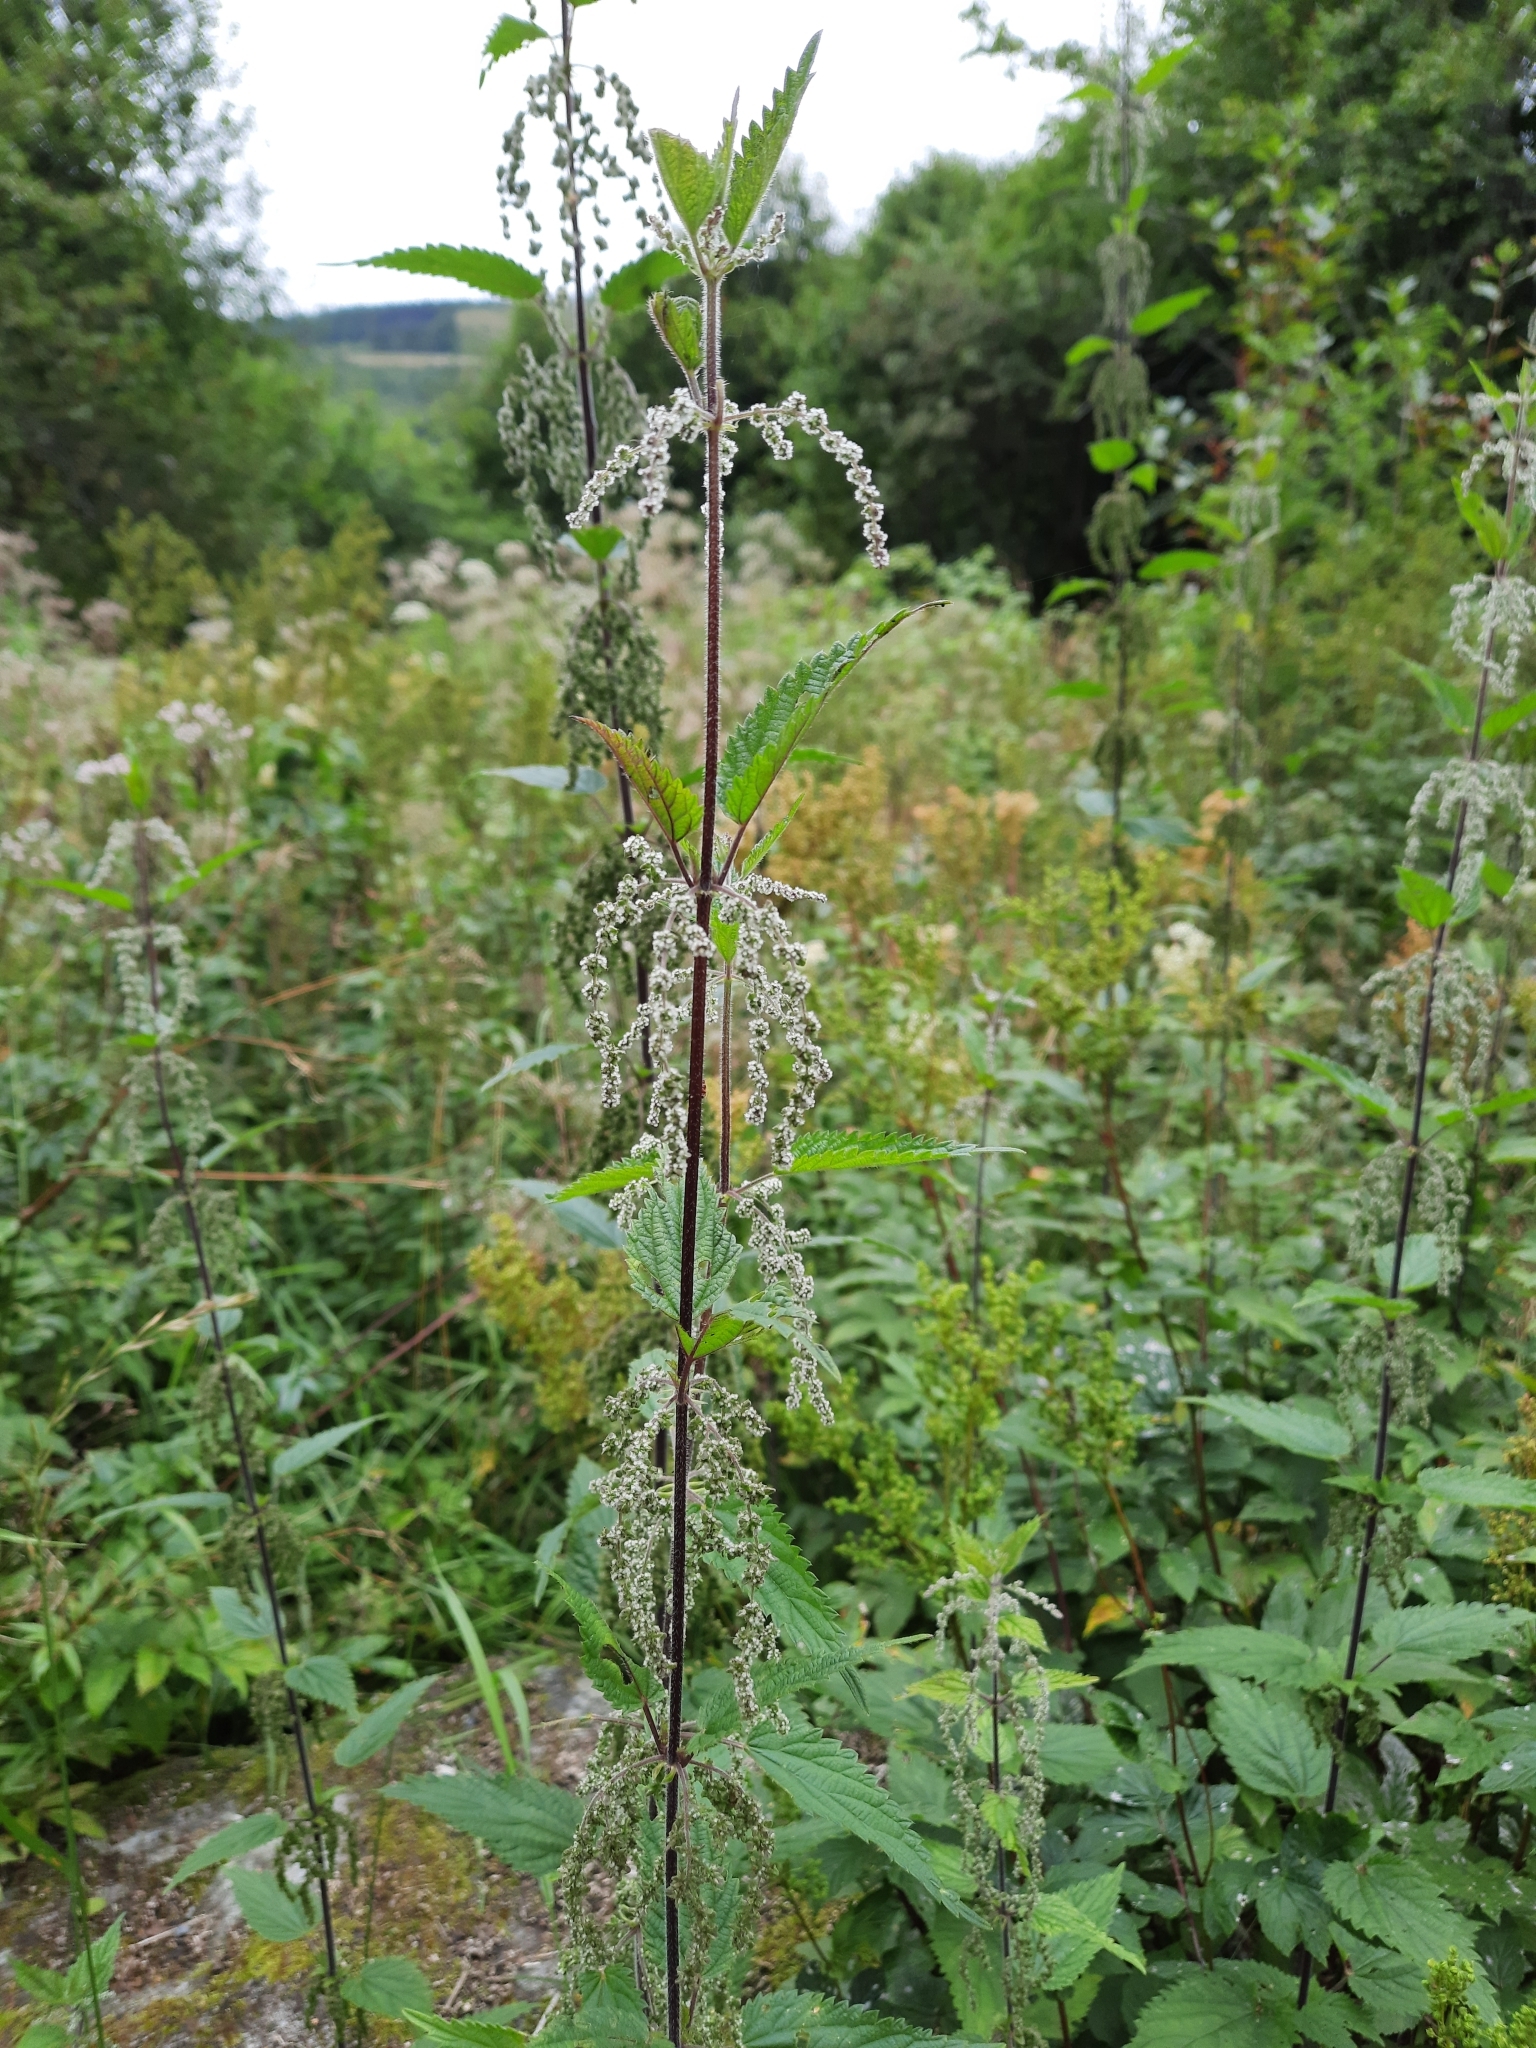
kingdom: Plantae
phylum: Tracheophyta
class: Magnoliopsida
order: Rosales
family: Urticaceae
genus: Urtica
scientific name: Urtica dioica
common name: Common nettle
